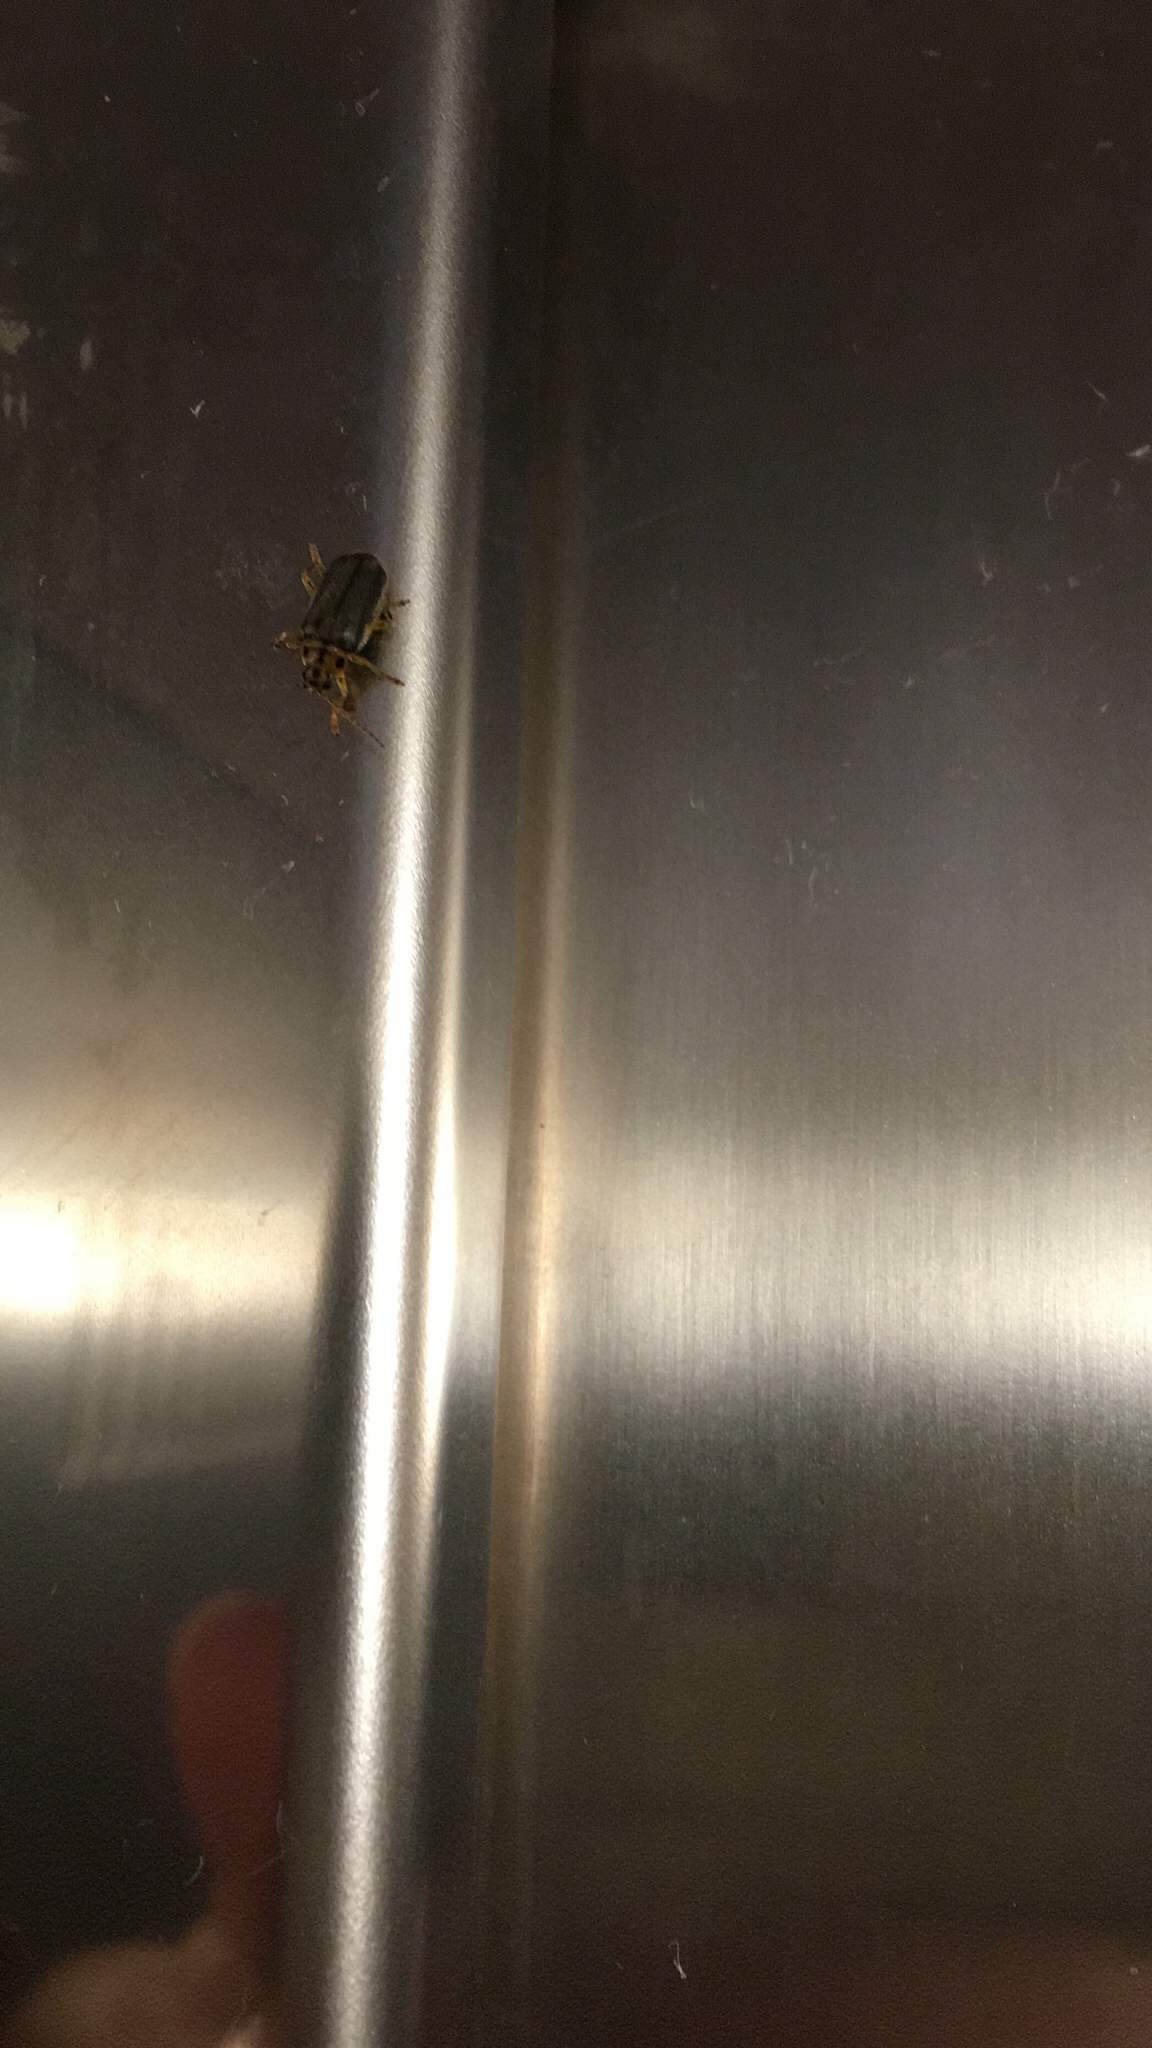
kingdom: Animalia
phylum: Arthropoda
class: Insecta
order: Coleoptera
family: Chrysomelidae
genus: Xanthogaleruca
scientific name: Xanthogaleruca luteola
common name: Elm leaf beetle
